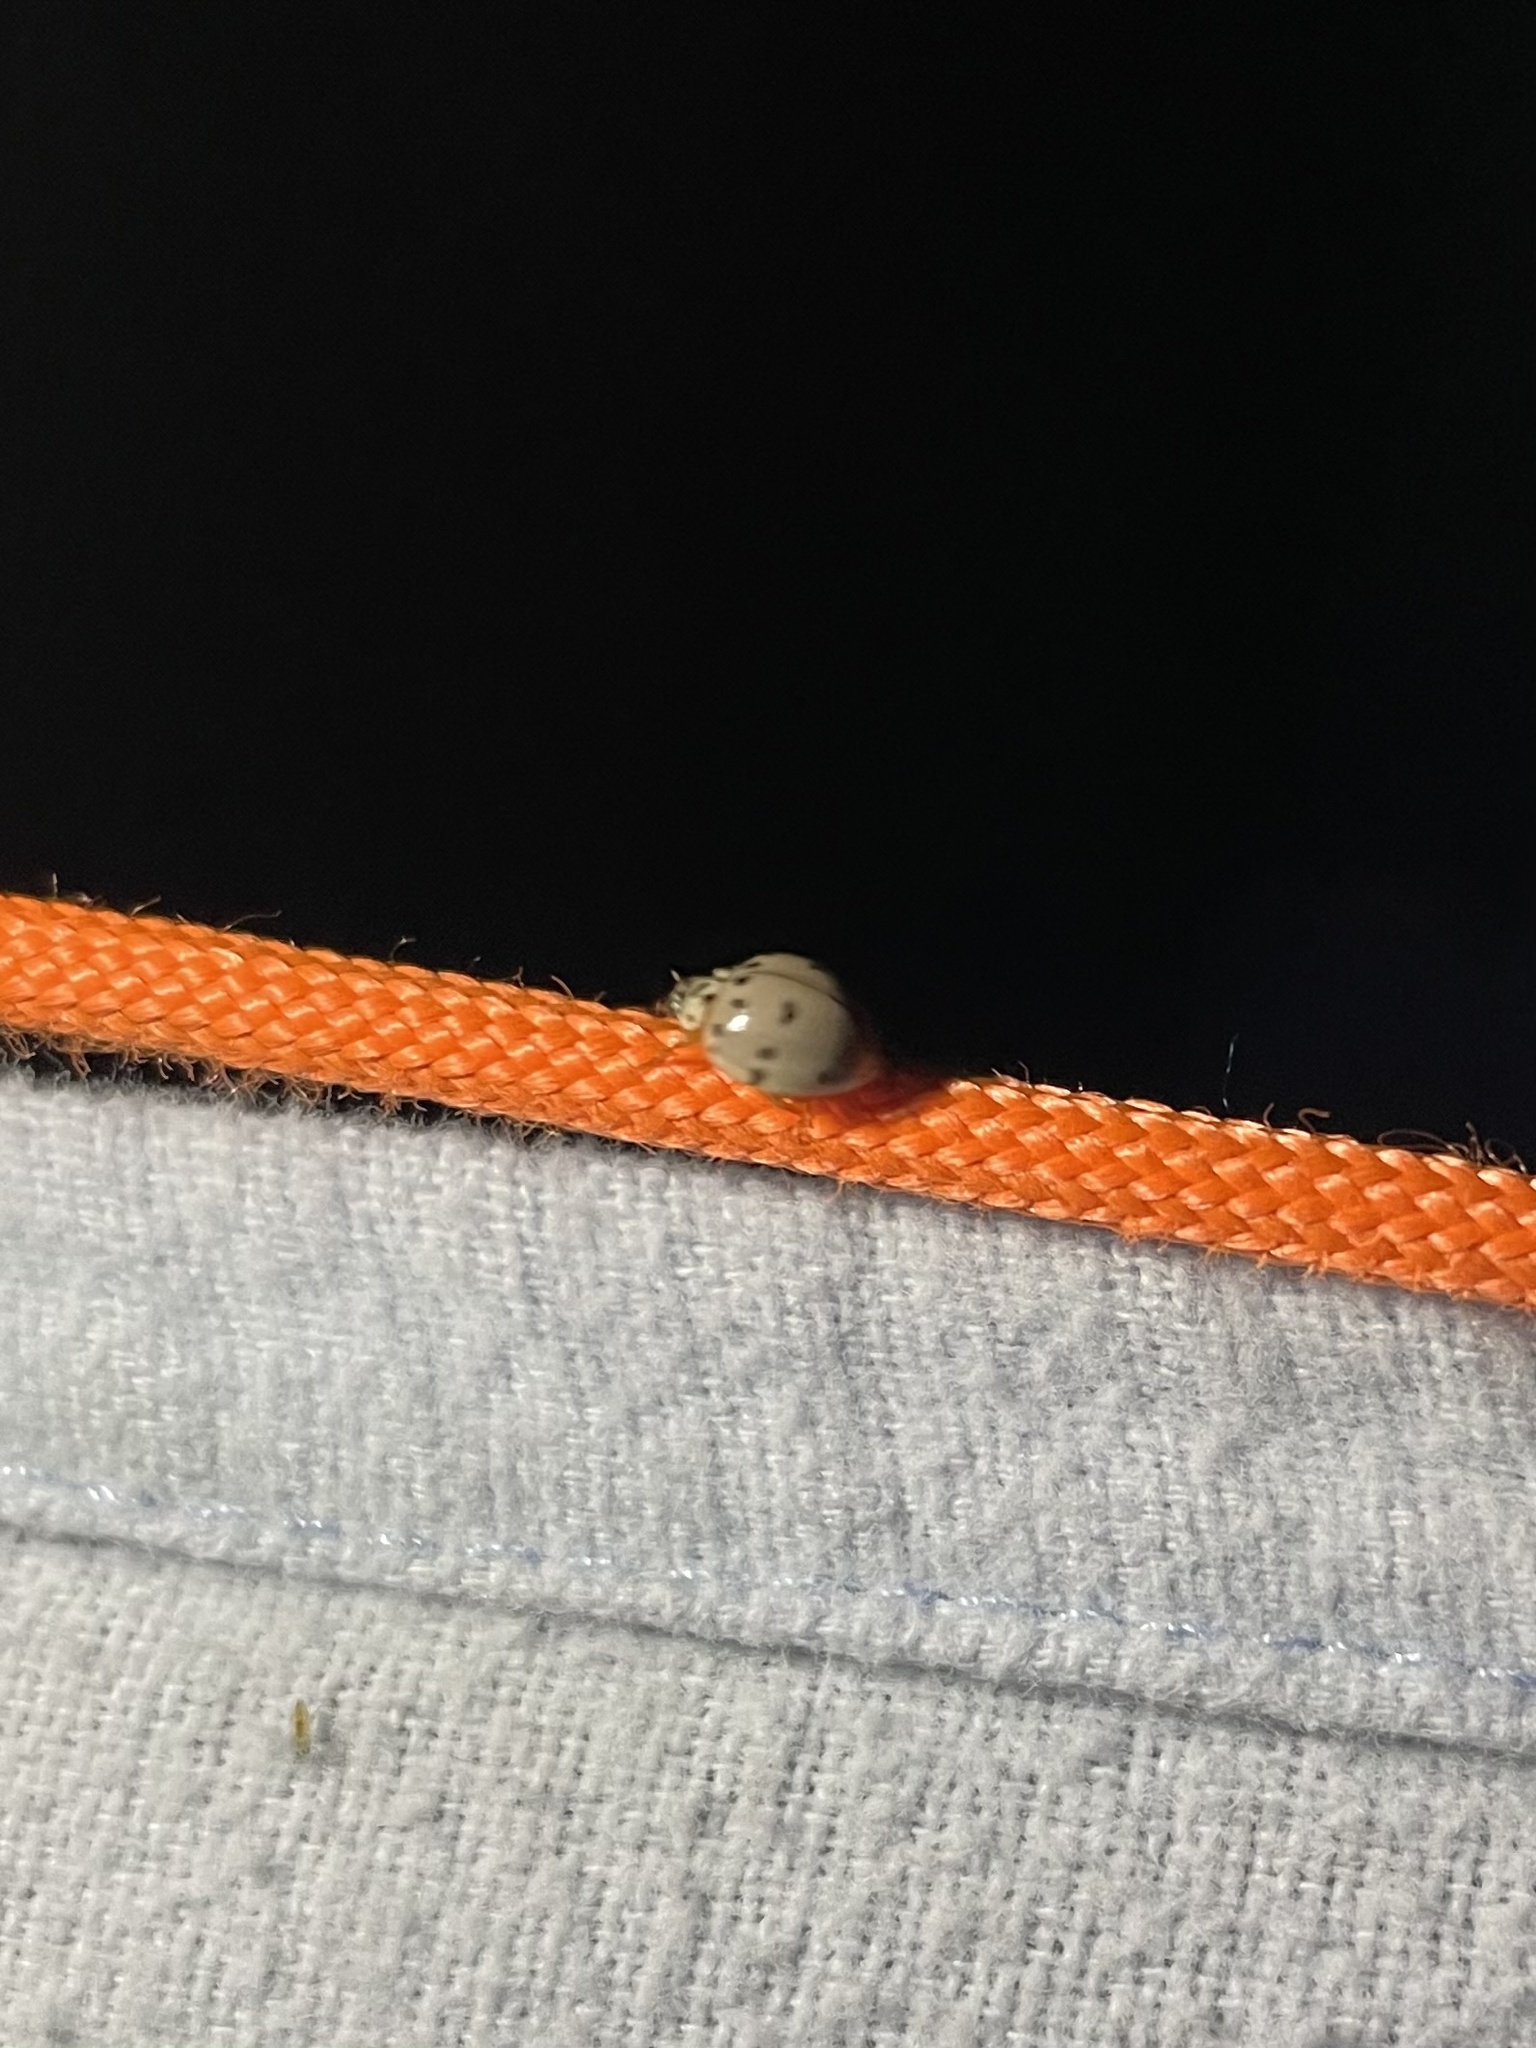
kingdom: Animalia
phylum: Arthropoda
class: Insecta
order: Coleoptera
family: Coccinellidae
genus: Olla
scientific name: Olla v-nigrum
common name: Ashy gray lady beetle
